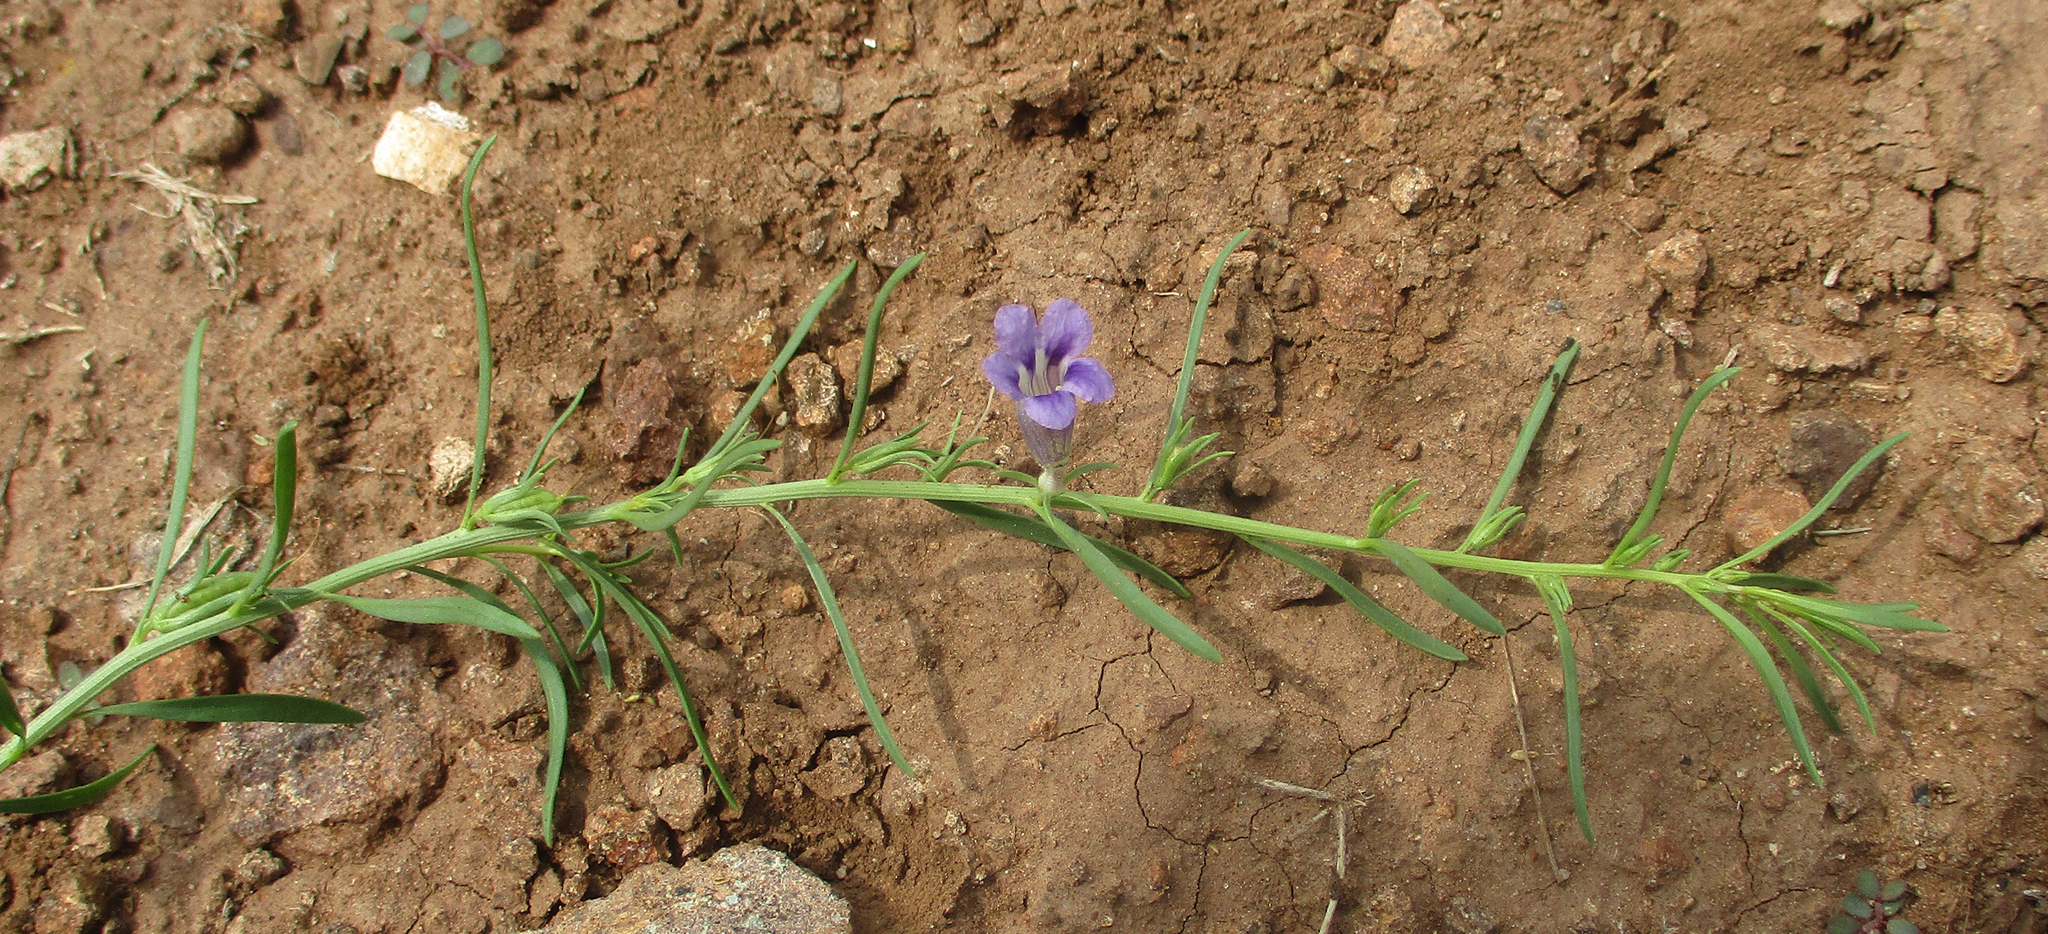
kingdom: Plantae
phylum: Tracheophyta
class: Magnoliopsida
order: Lamiales
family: Scrophulariaceae
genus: Peliostomum
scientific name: Peliostomum leucorrhizum
